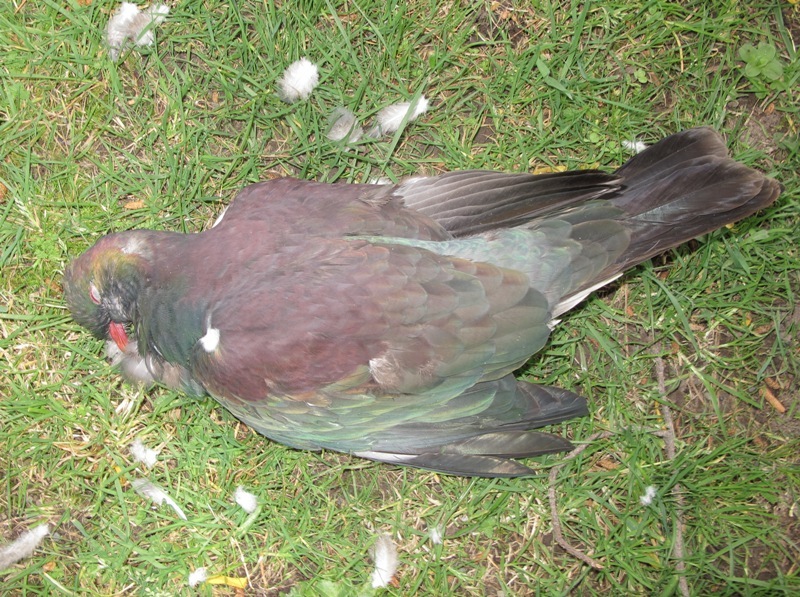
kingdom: Animalia
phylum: Chordata
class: Aves
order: Columbiformes
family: Columbidae
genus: Hemiphaga
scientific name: Hemiphaga novaeseelandiae
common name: New zealand pigeon
